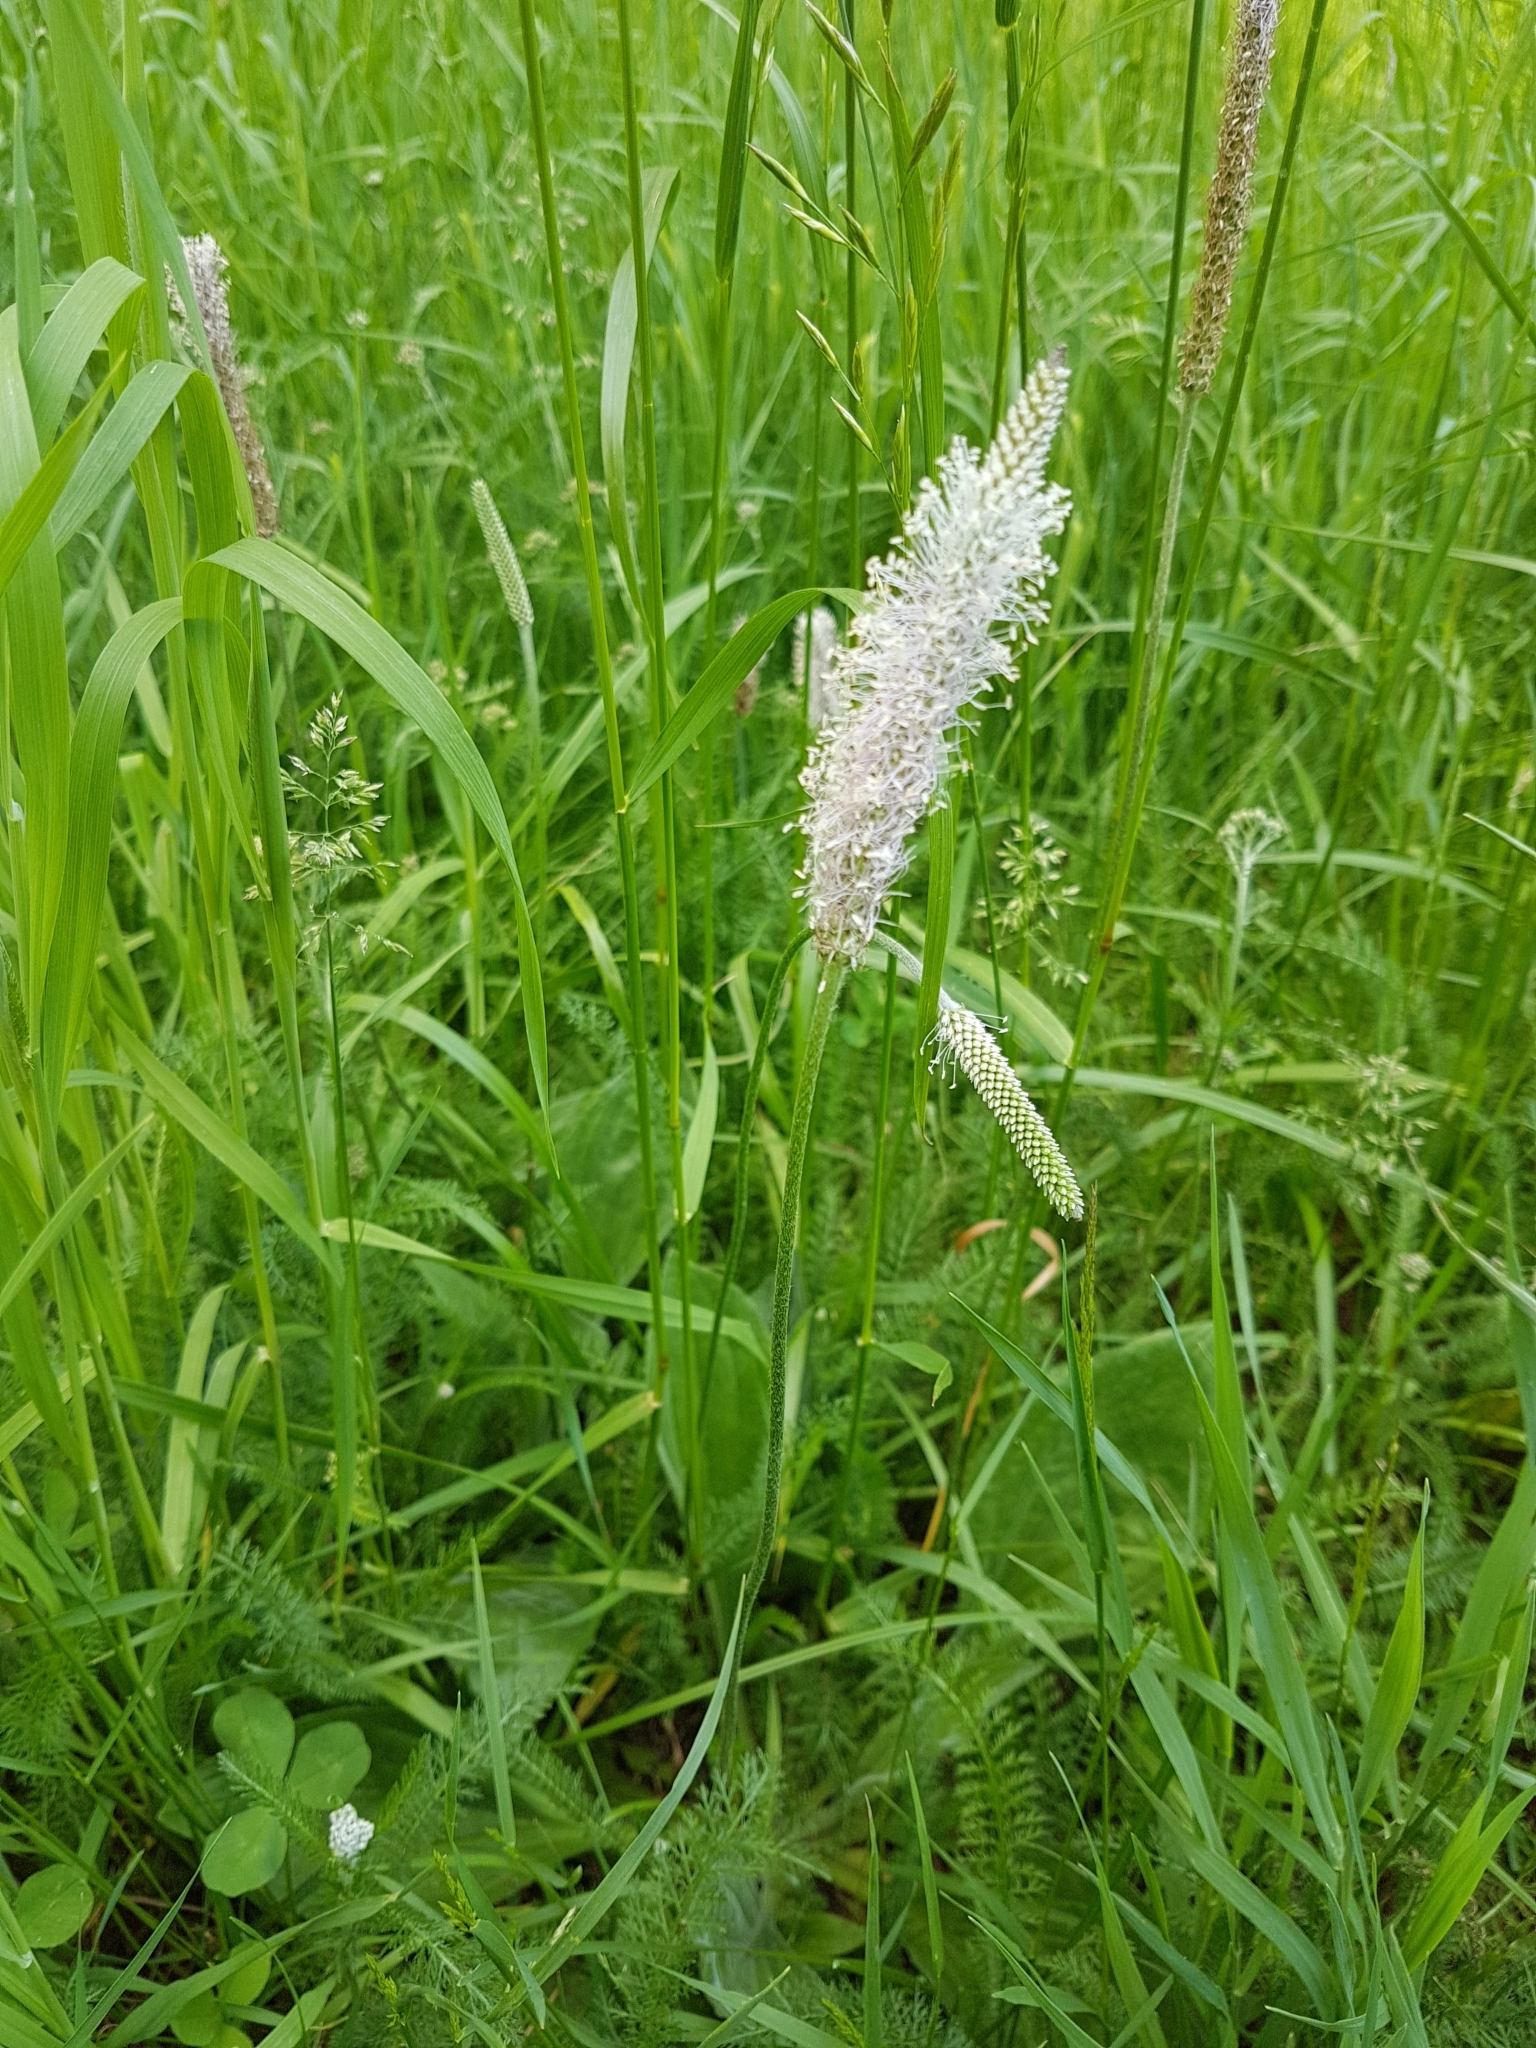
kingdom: Plantae
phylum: Tracheophyta
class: Magnoliopsida
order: Lamiales
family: Plantaginaceae
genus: Plantago
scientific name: Plantago media
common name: Hoary plantain
